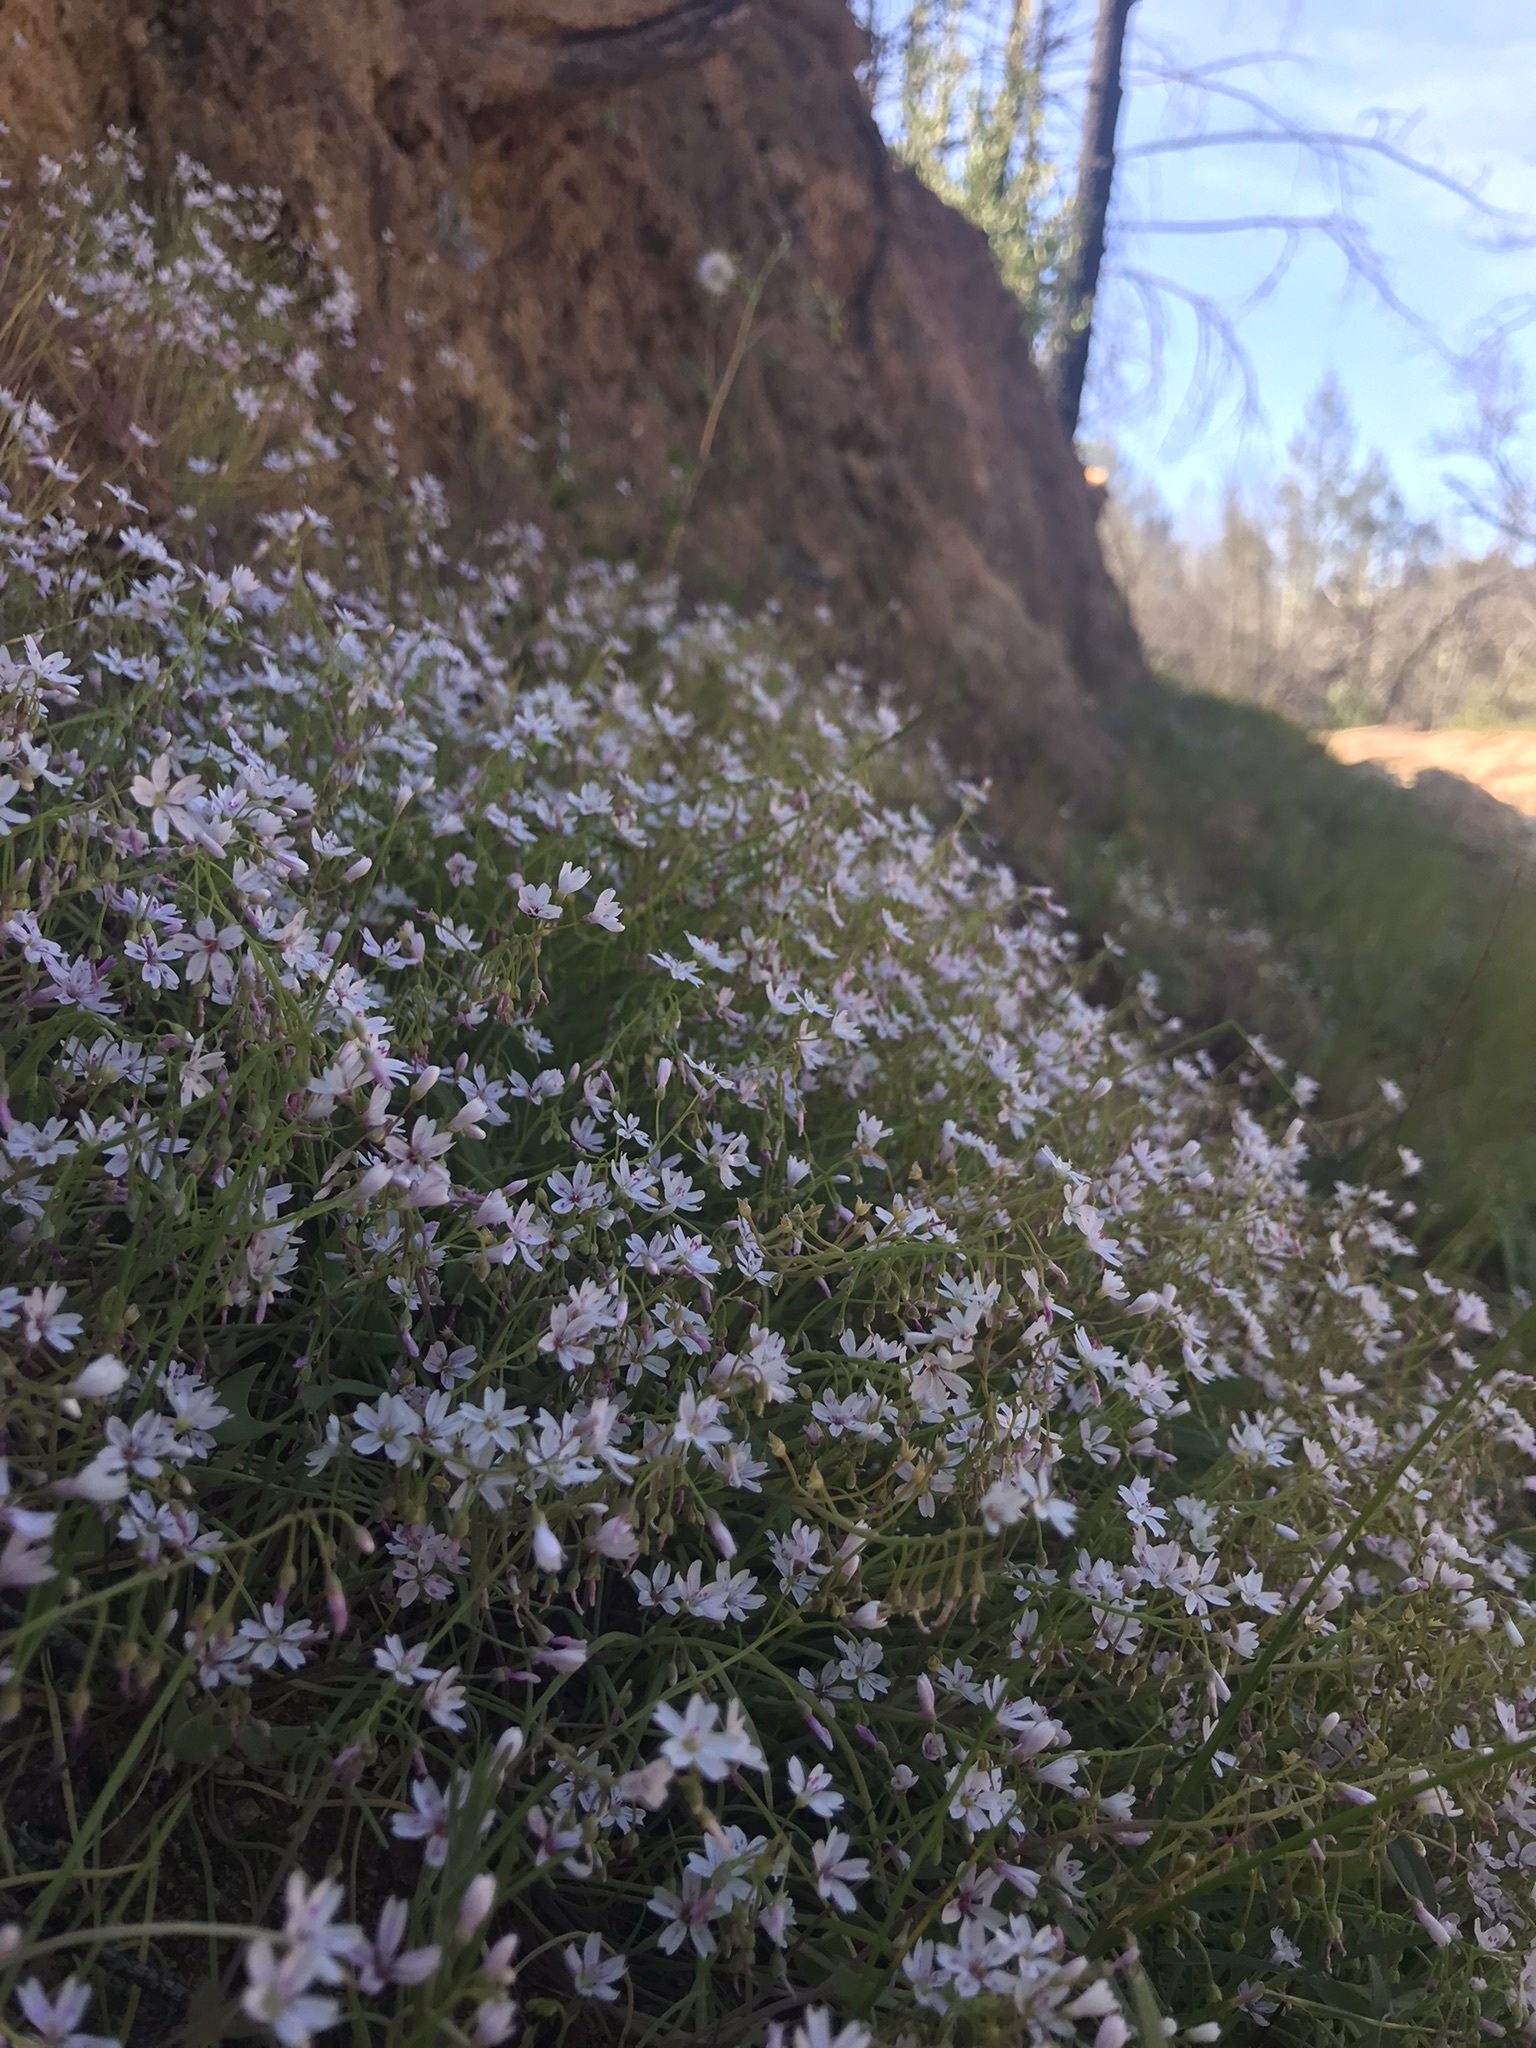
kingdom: Plantae
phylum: Tracheophyta
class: Magnoliopsida
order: Caryophyllales
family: Montiaceae
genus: Claytonia
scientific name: Claytonia gypsophiloides
